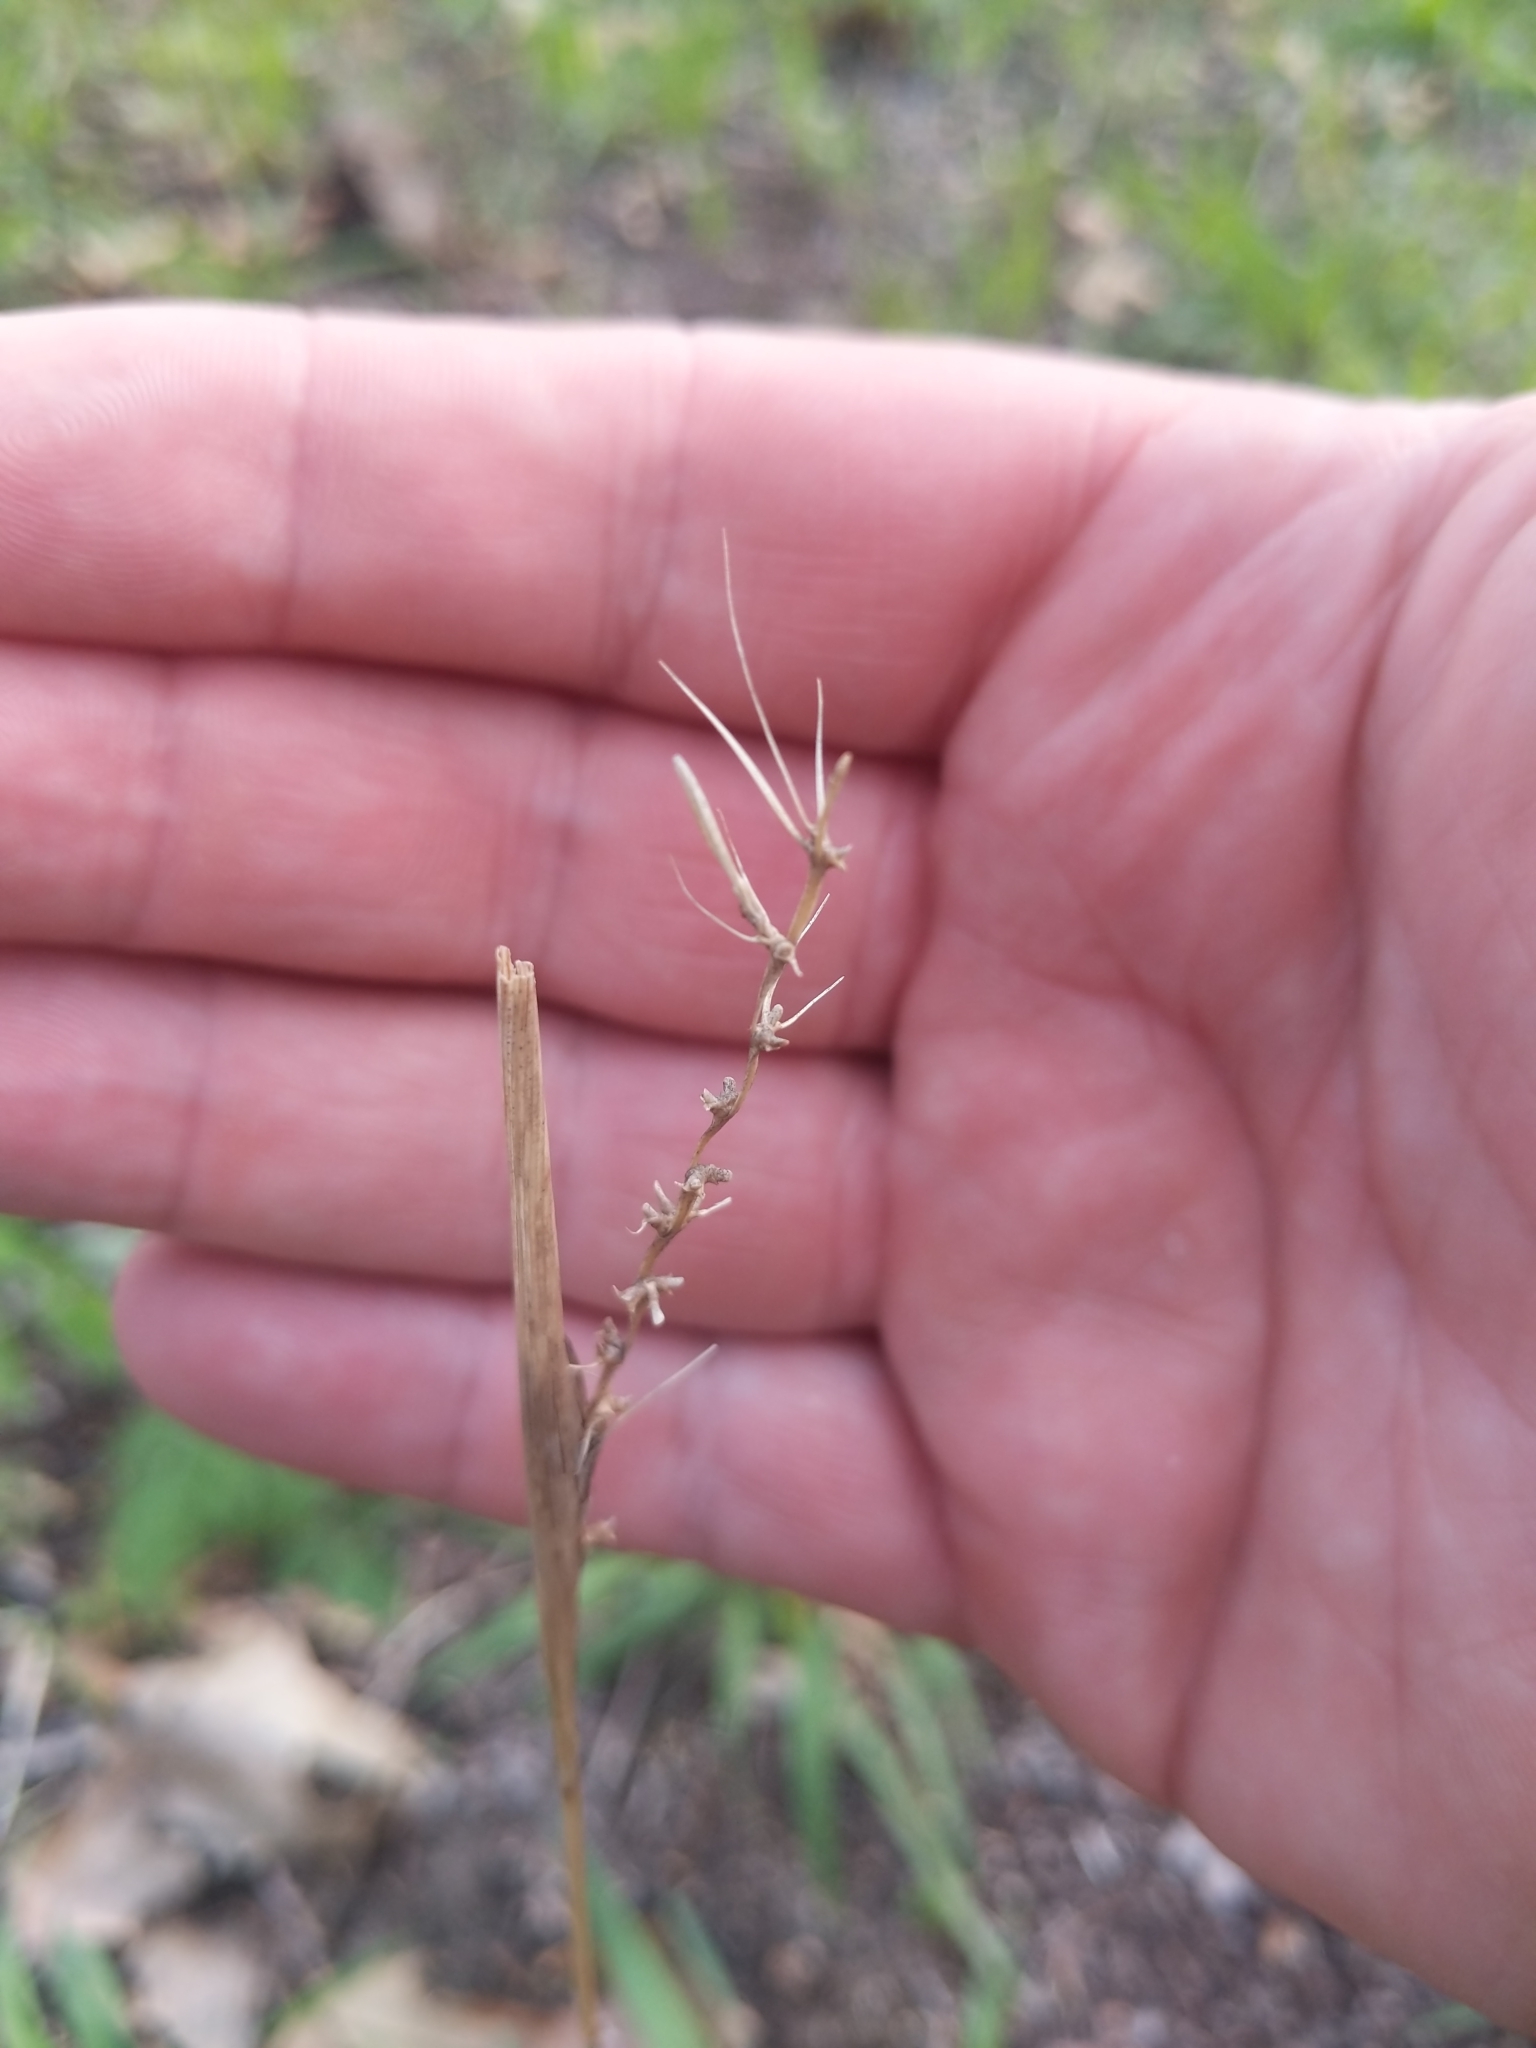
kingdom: Plantae
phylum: Tracheophyta
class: Liliopsida
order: Poales
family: Poaceae
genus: Elymus
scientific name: Elymus hystrix
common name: Bottlebrush grass
